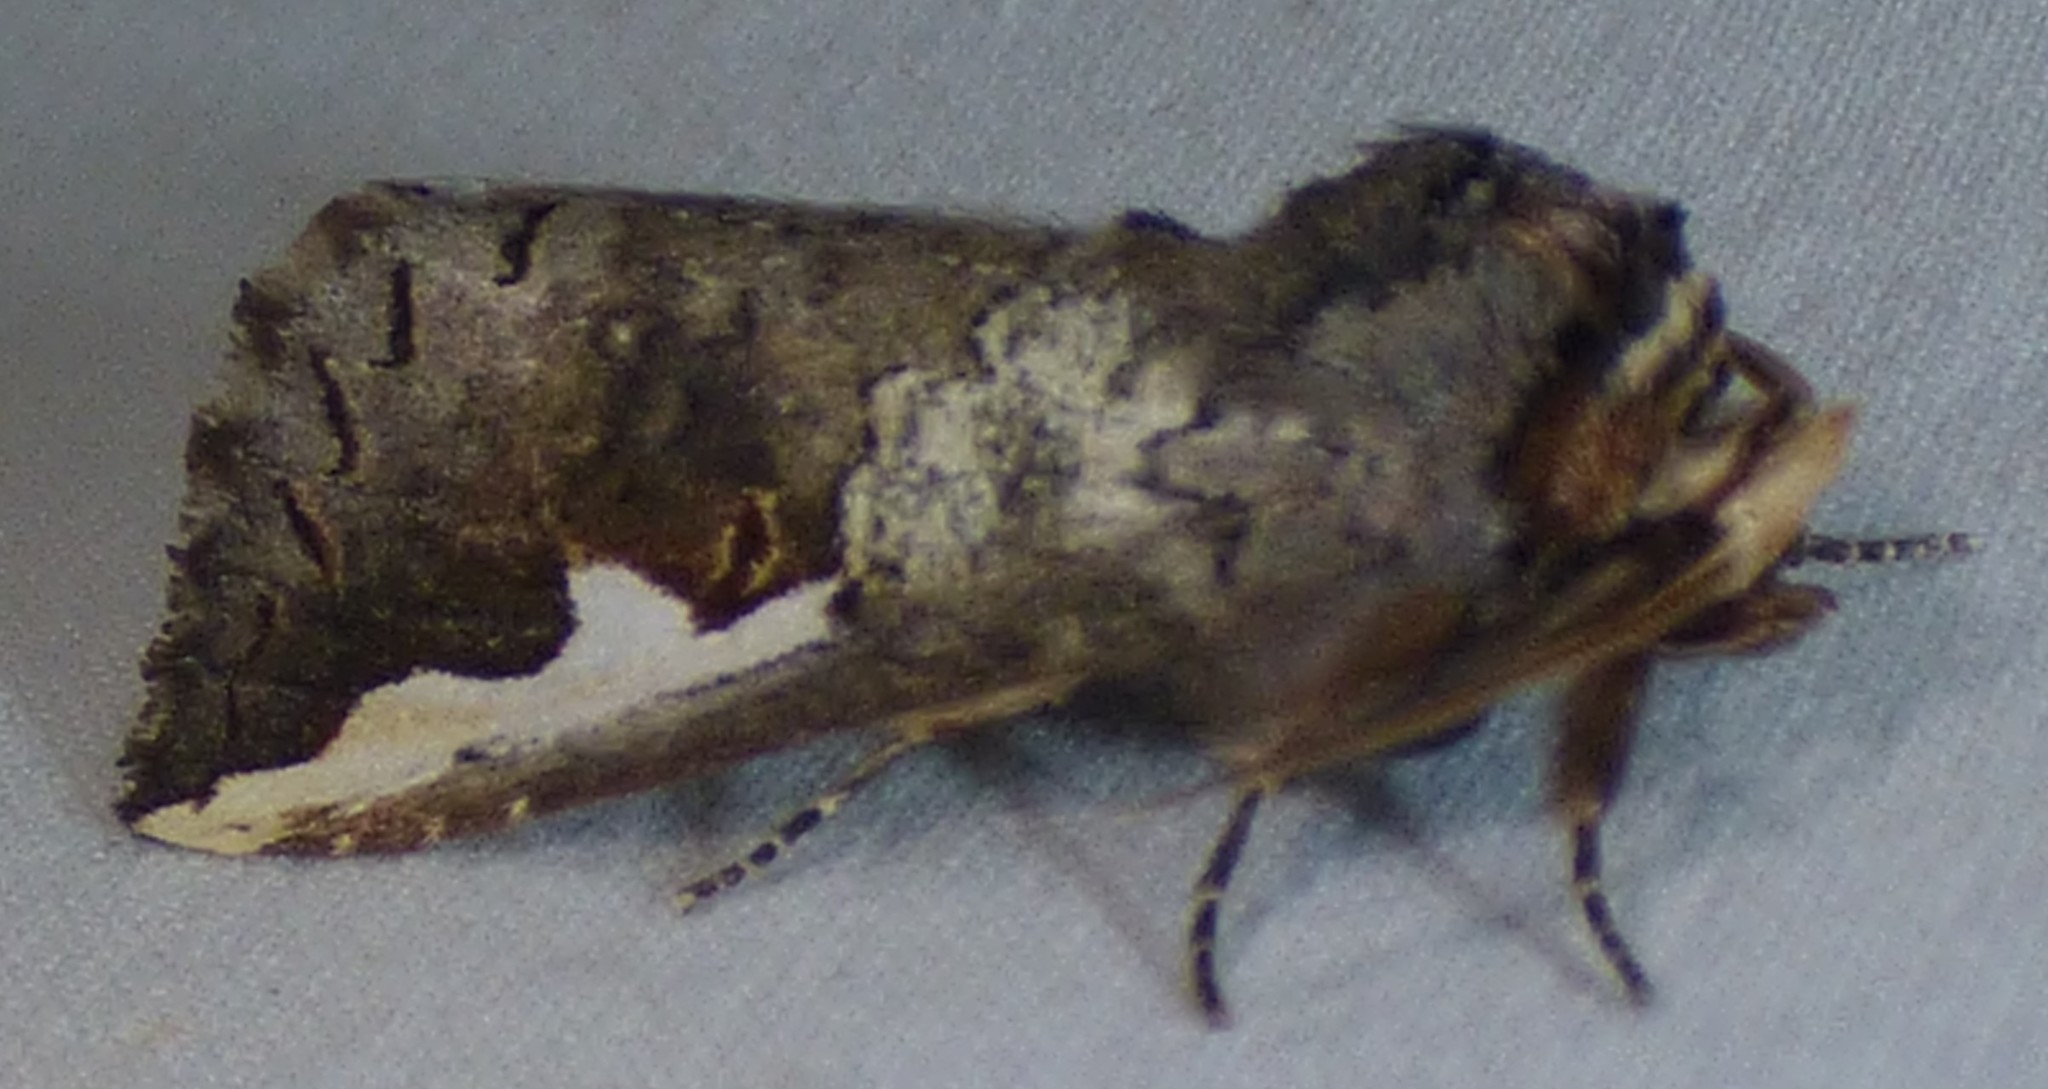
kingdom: Animalia
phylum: Arthropoda
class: Insecta
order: Lepidoptera
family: Notodontidae
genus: Symmerista
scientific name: Symmerista albifrons
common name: White-headed prominent
